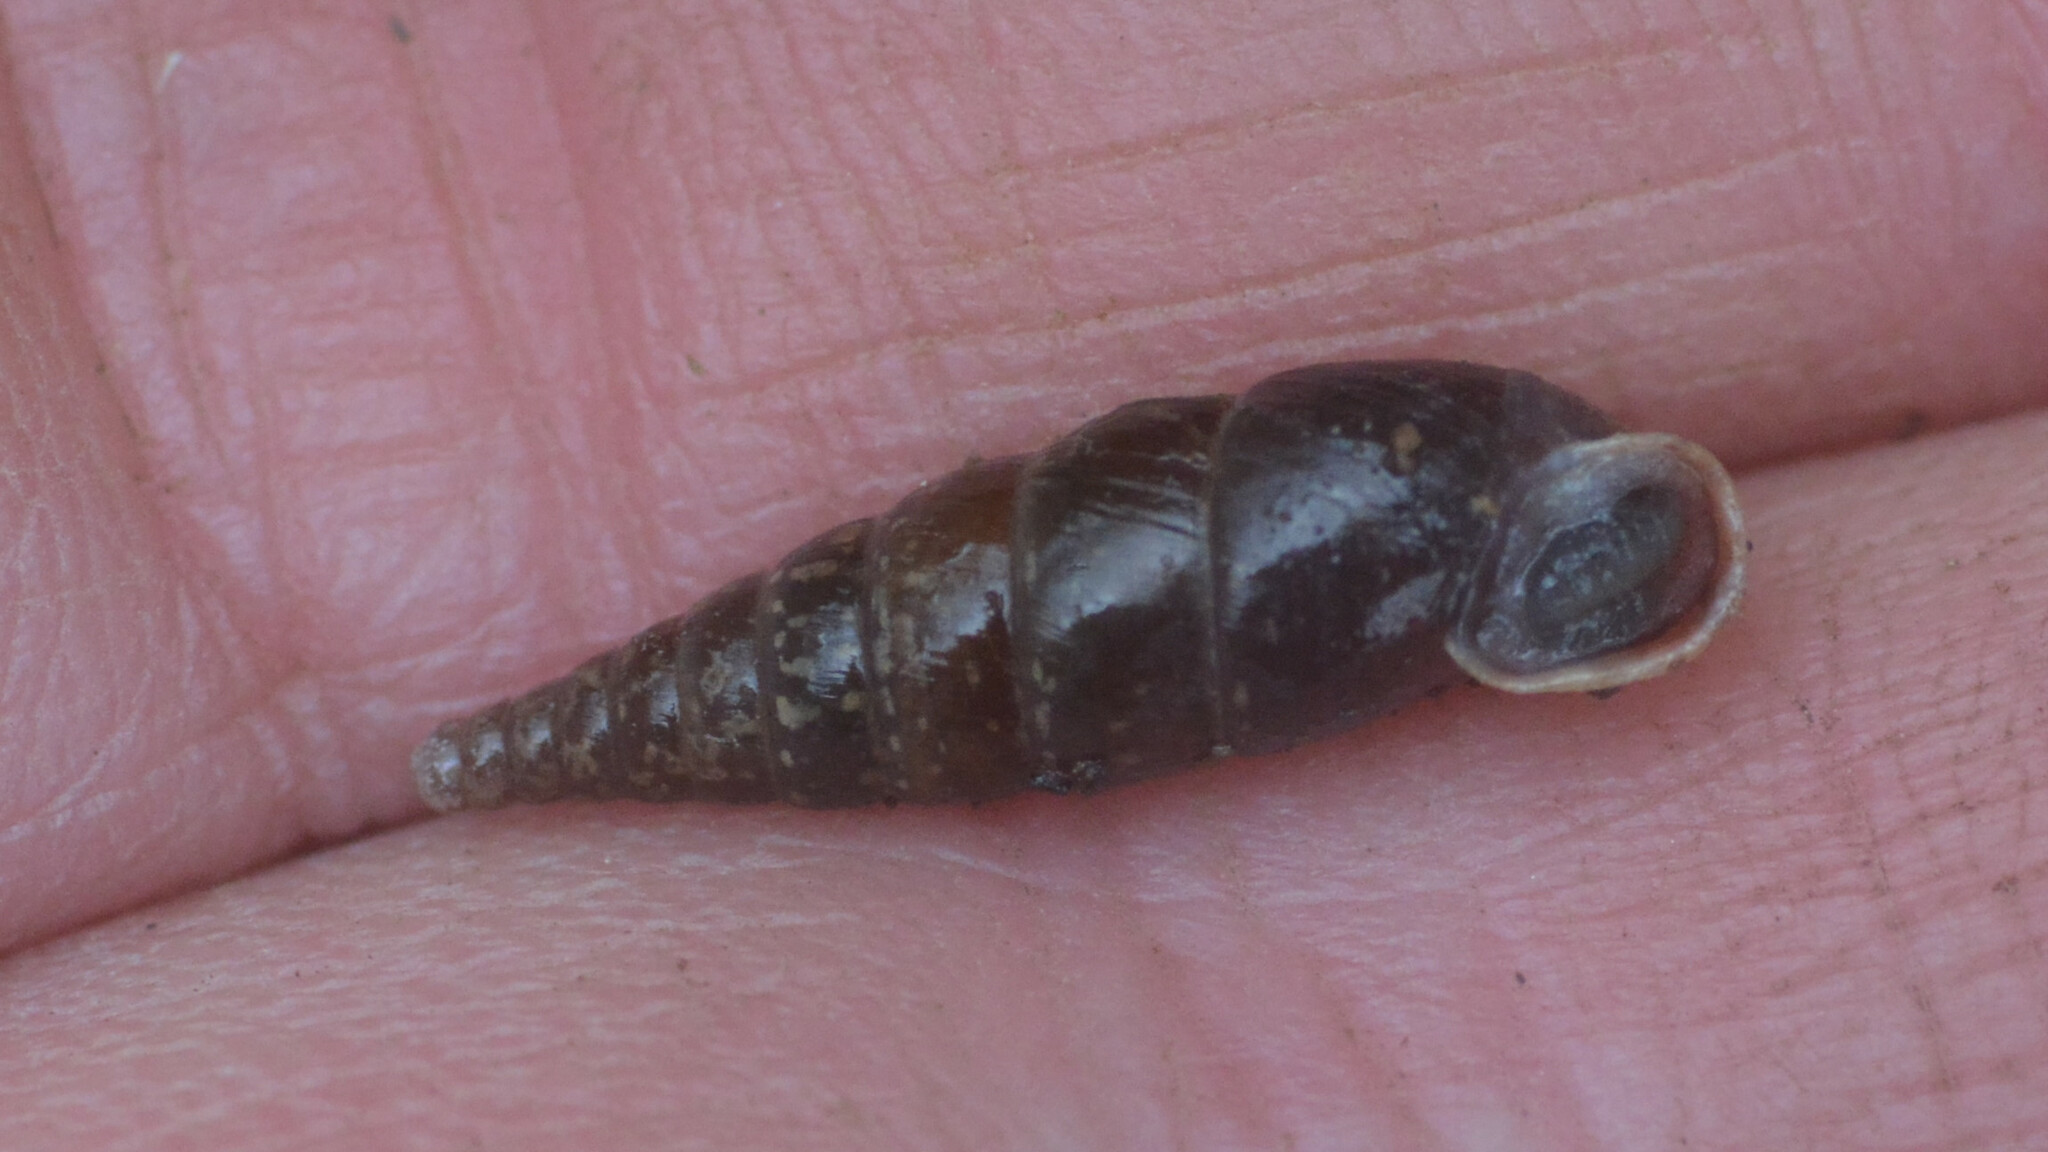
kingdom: Animalia
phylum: Mollusca
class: Gastropoda
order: Stylommatophora
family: Clausiliidae
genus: Cochlodina
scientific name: Cochlodina laminata
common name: Plaited door snail
